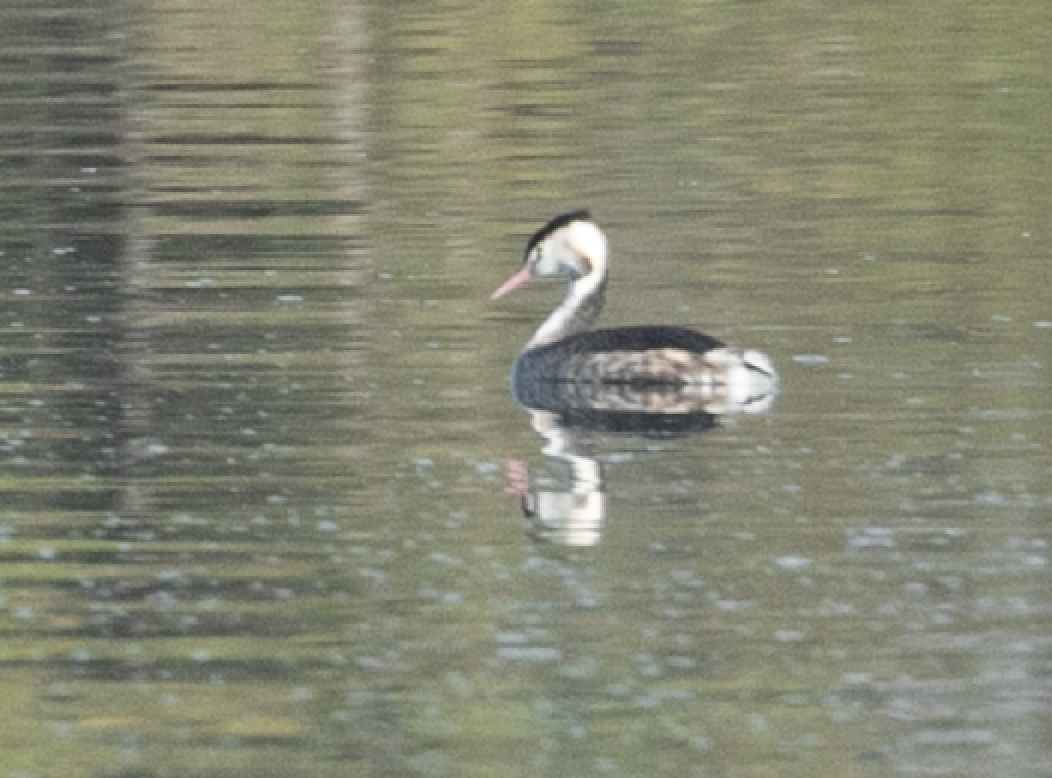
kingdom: Animalia
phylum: Chordata
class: Aves
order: Podicipediformes
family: Podicipedidae
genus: Podiceps
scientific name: Podiceps cristatus
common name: Great crested grebe
